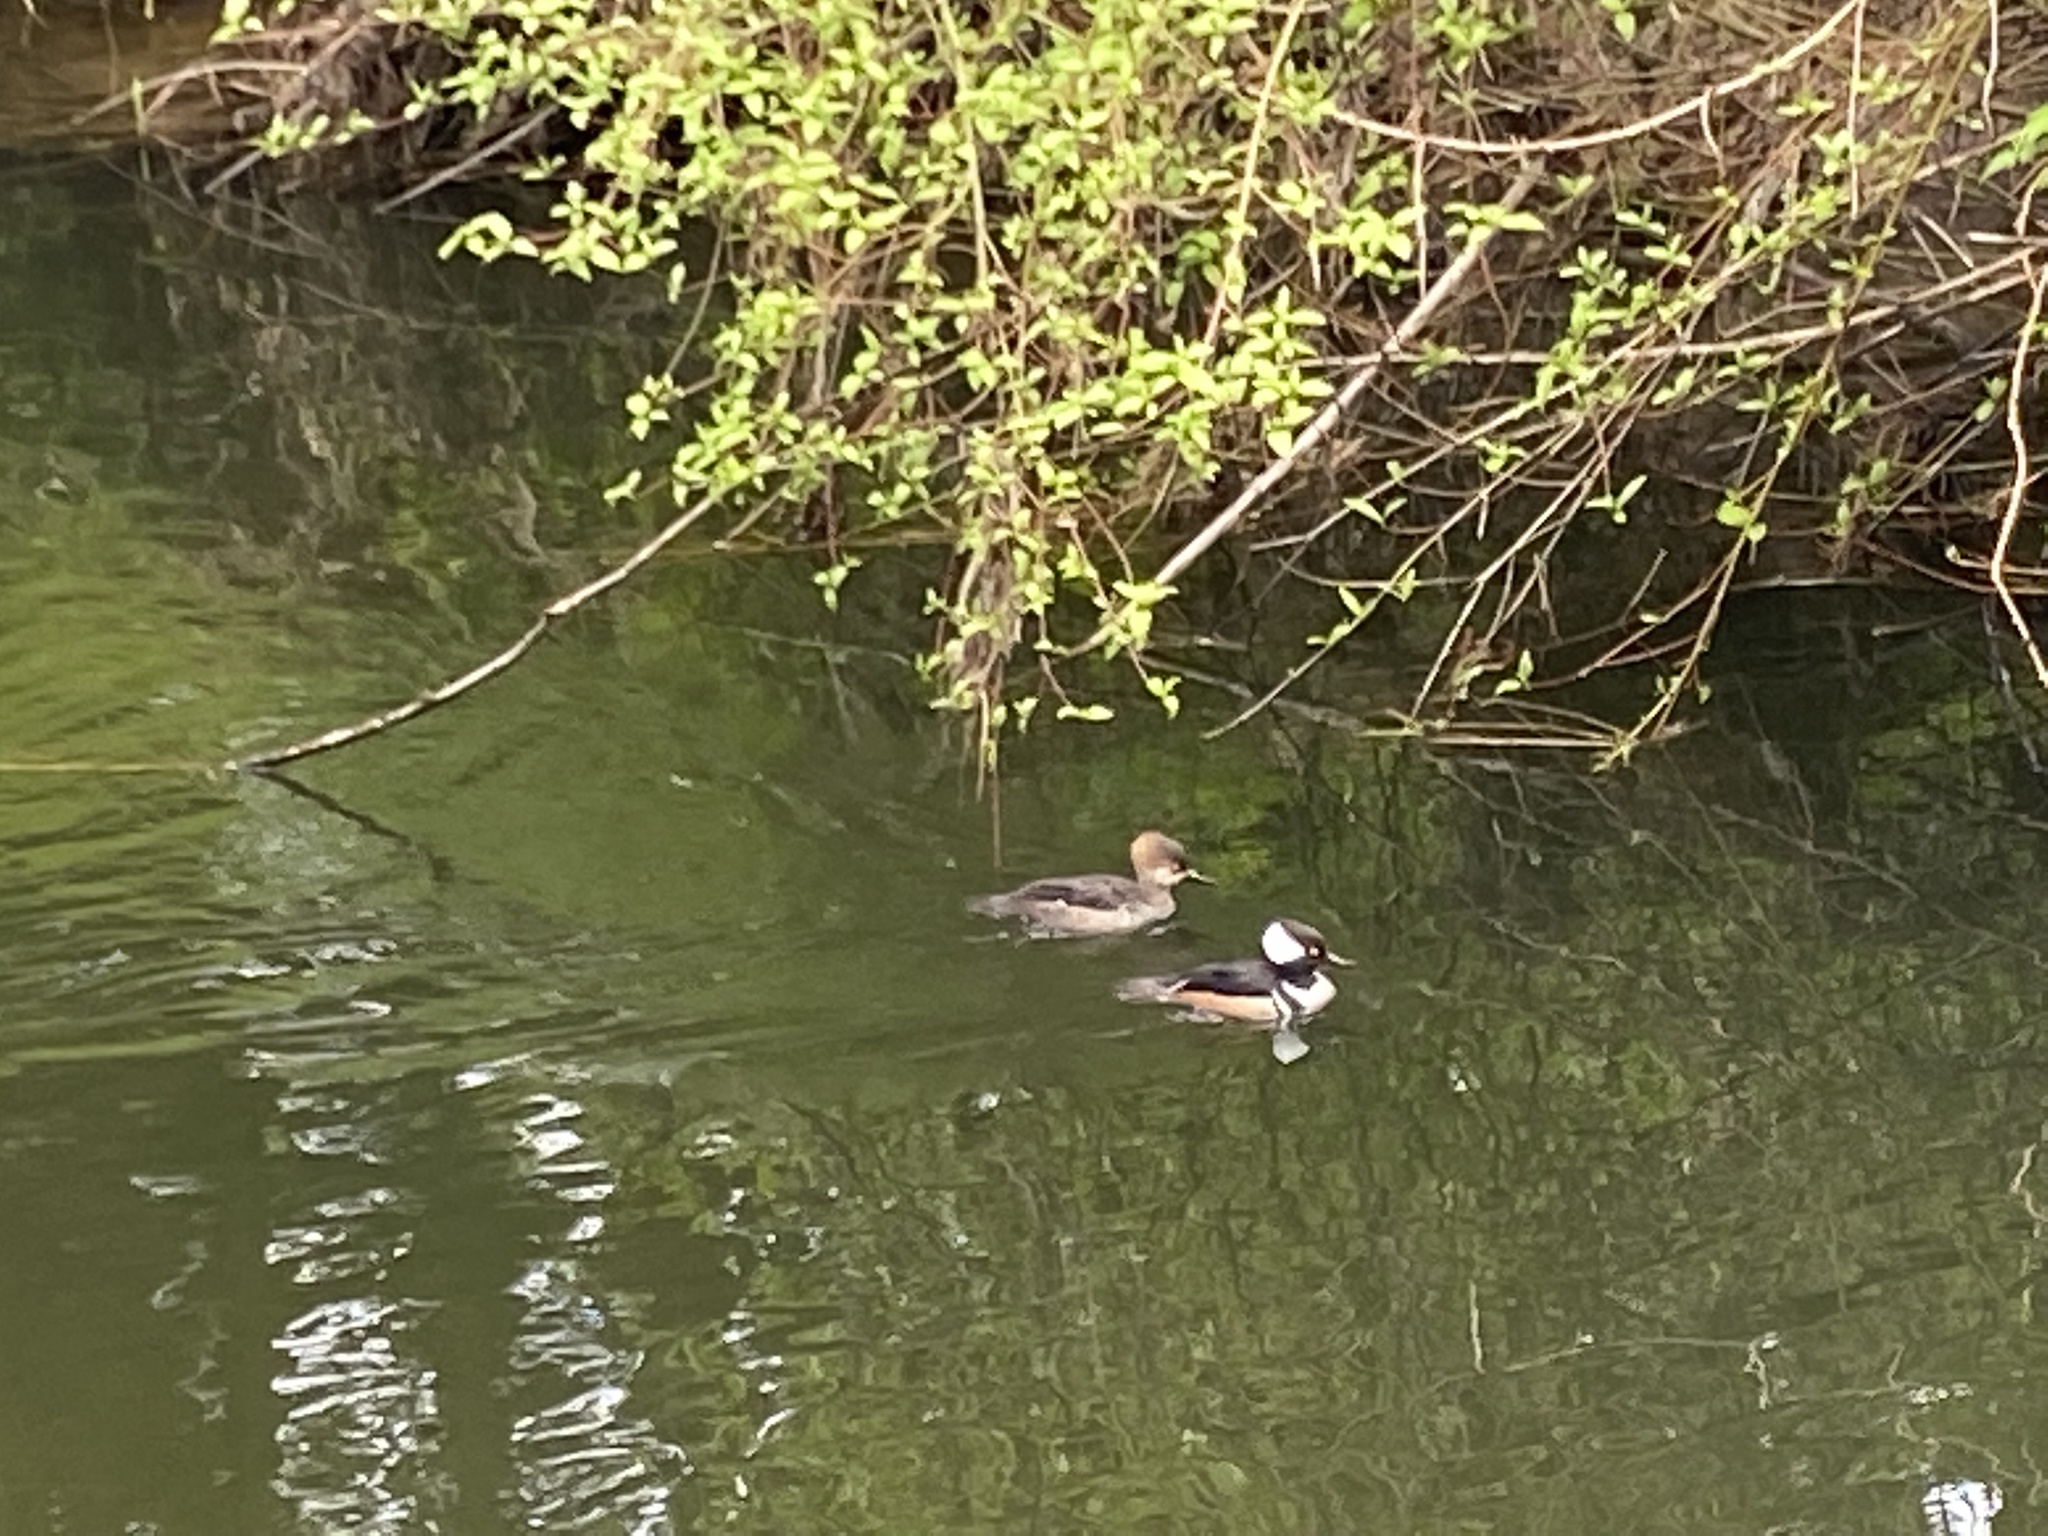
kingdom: Animalia
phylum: Chordata
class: Aves
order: Anseriformes
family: Anatidae
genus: Lophodytes
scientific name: Lophodytes cucullatus
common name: Hooded merganser
